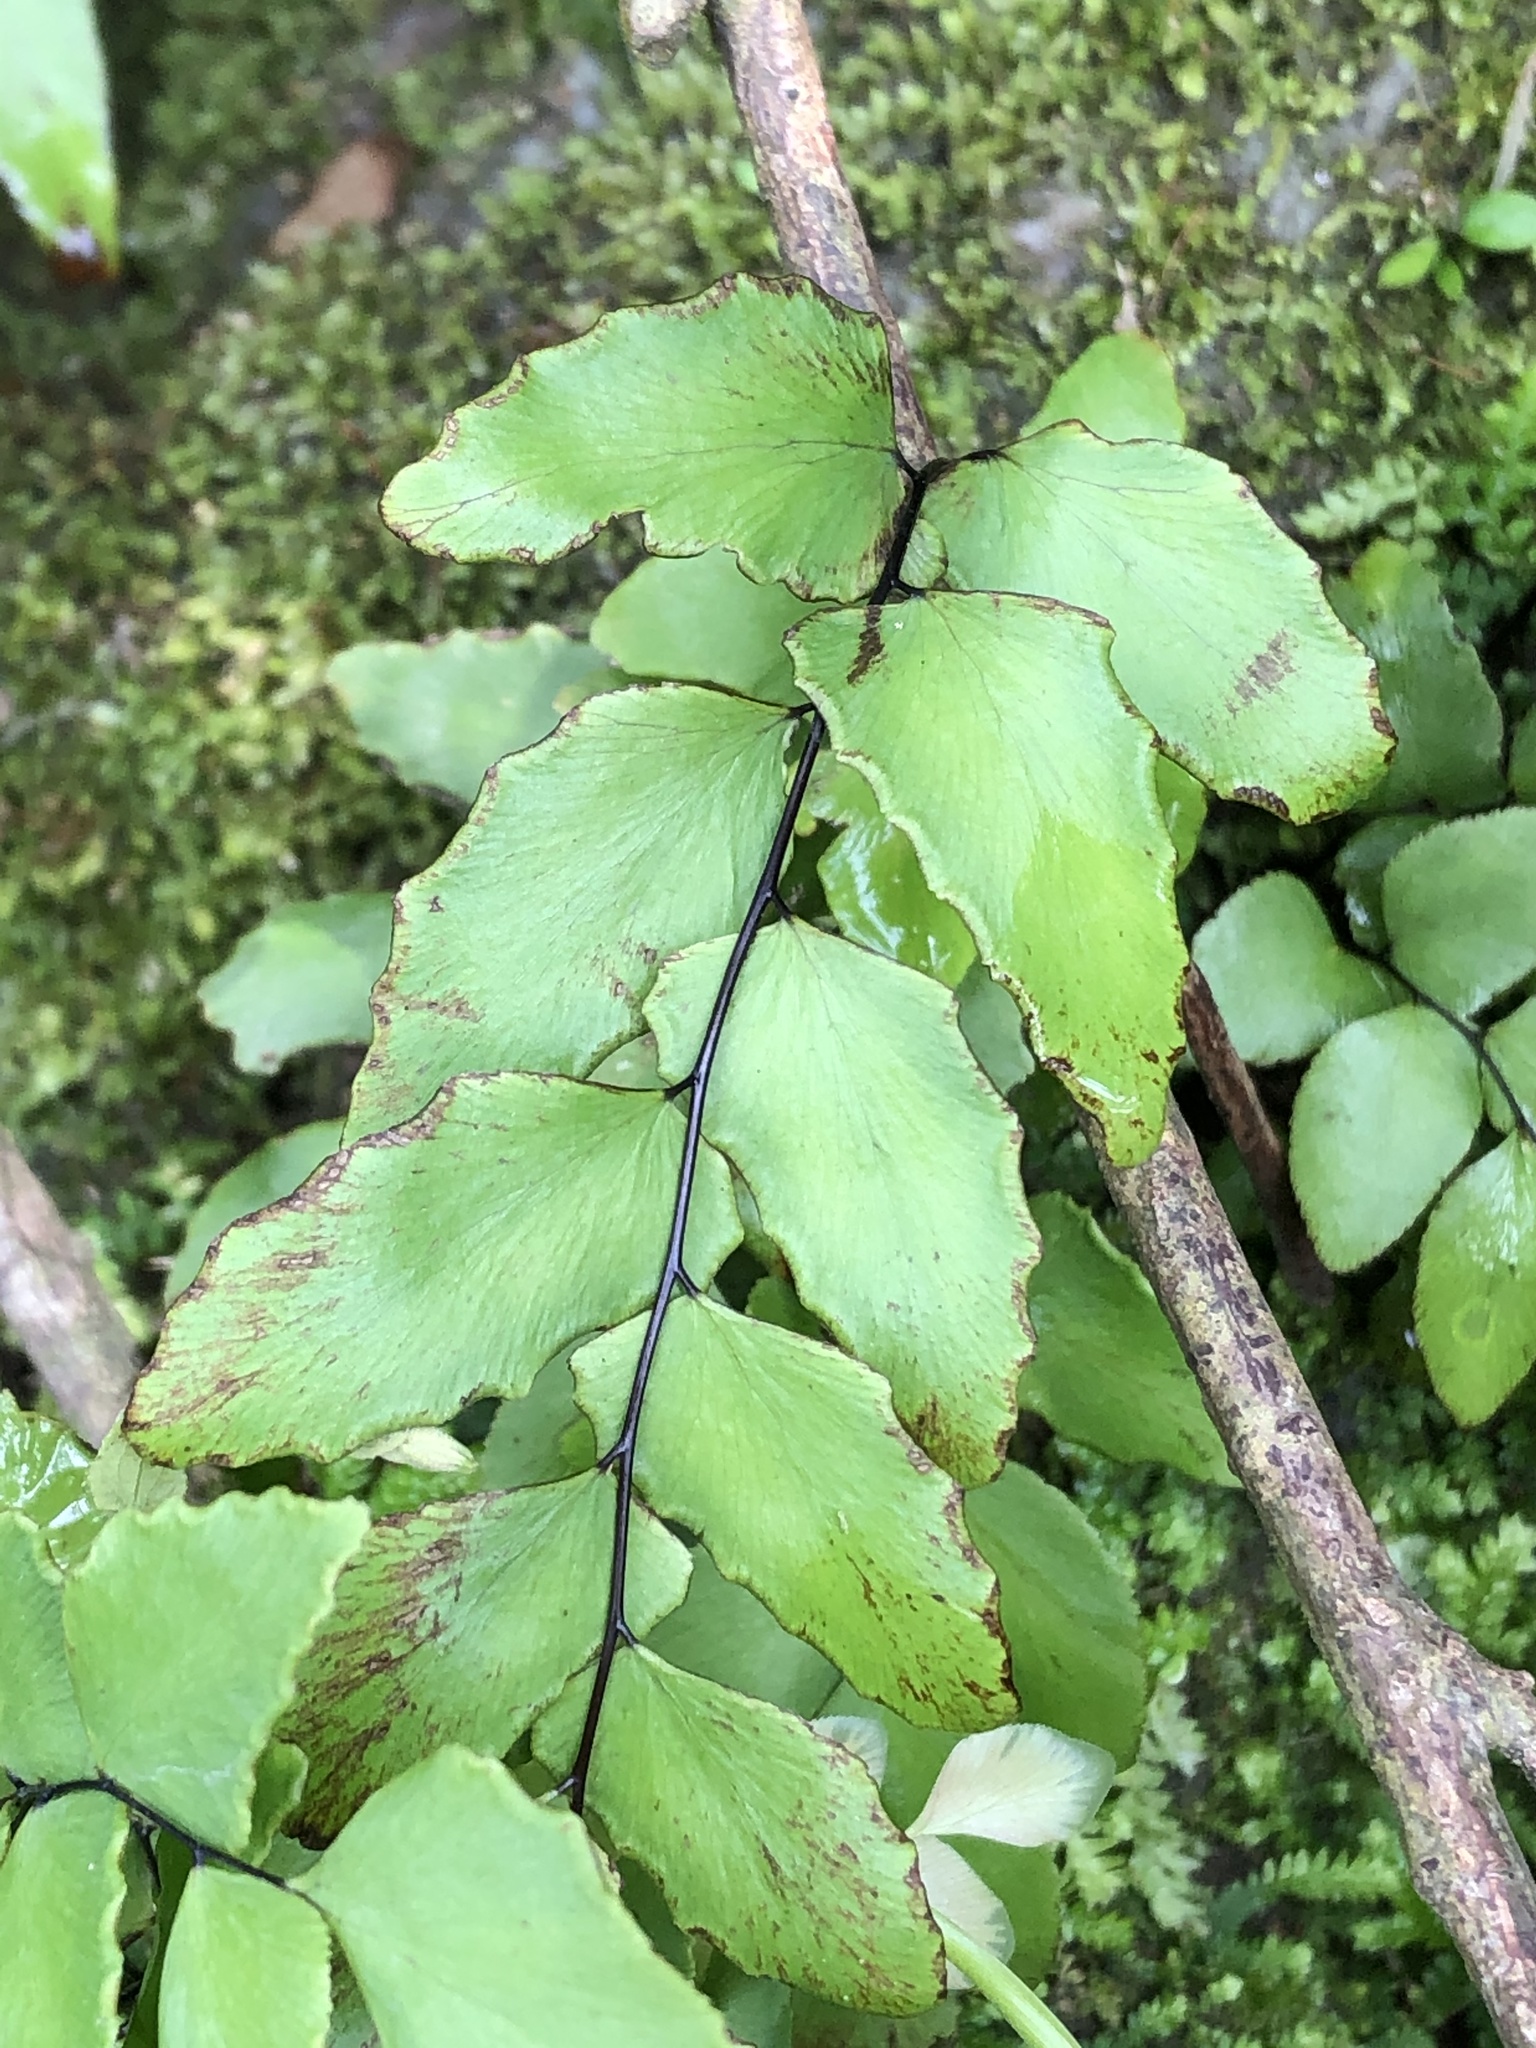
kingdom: Plantae
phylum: Tracheophyta
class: Polypodiopsida
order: Polypodiales
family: Pteridaceae
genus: Adiantum
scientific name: Adiantum petiolatum
